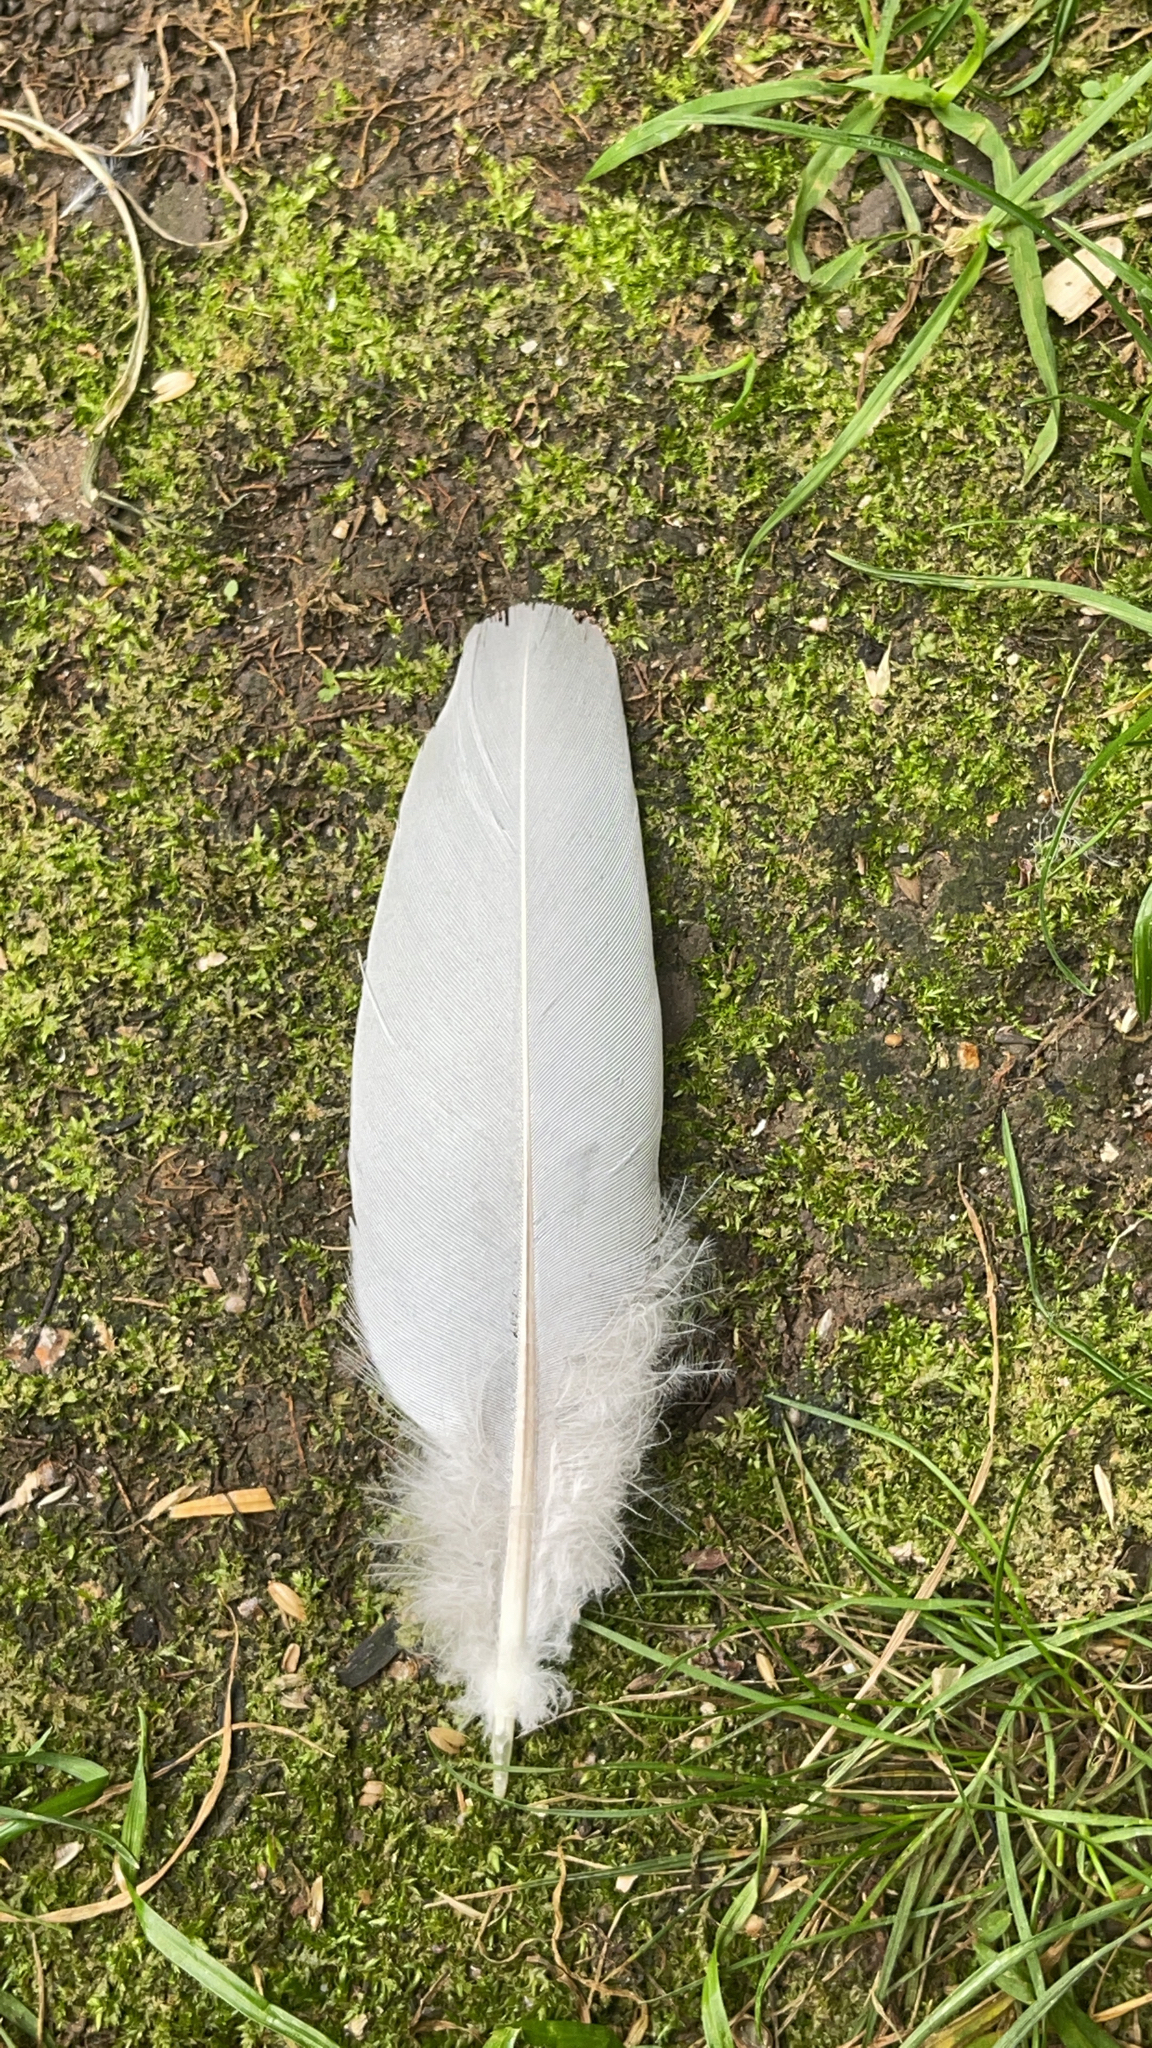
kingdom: Animalia
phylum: Chordata
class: Aves
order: Columbiformes
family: Columbidae
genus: Columba
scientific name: Columba palumbus
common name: Common wood pigeon
